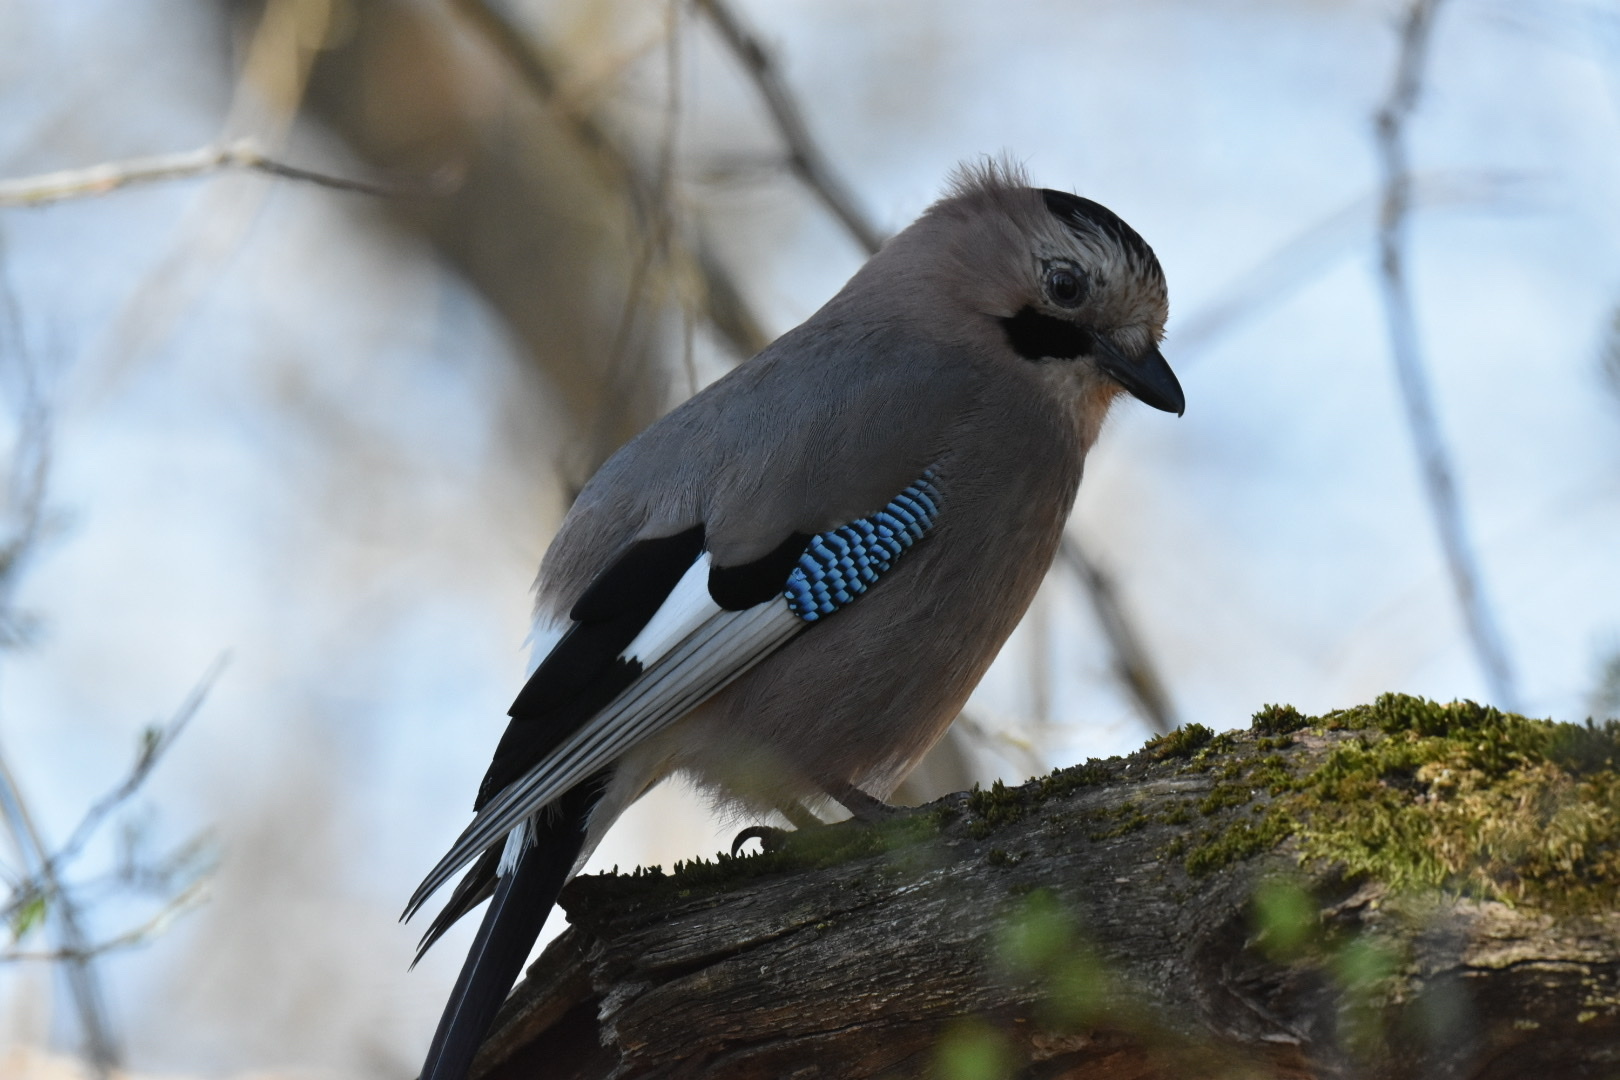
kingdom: Animalia
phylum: Chordata
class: Aves
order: Passeriformes
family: Corvidae
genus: Garrulus
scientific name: Garrulus glandarius
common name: Eurasian jay
